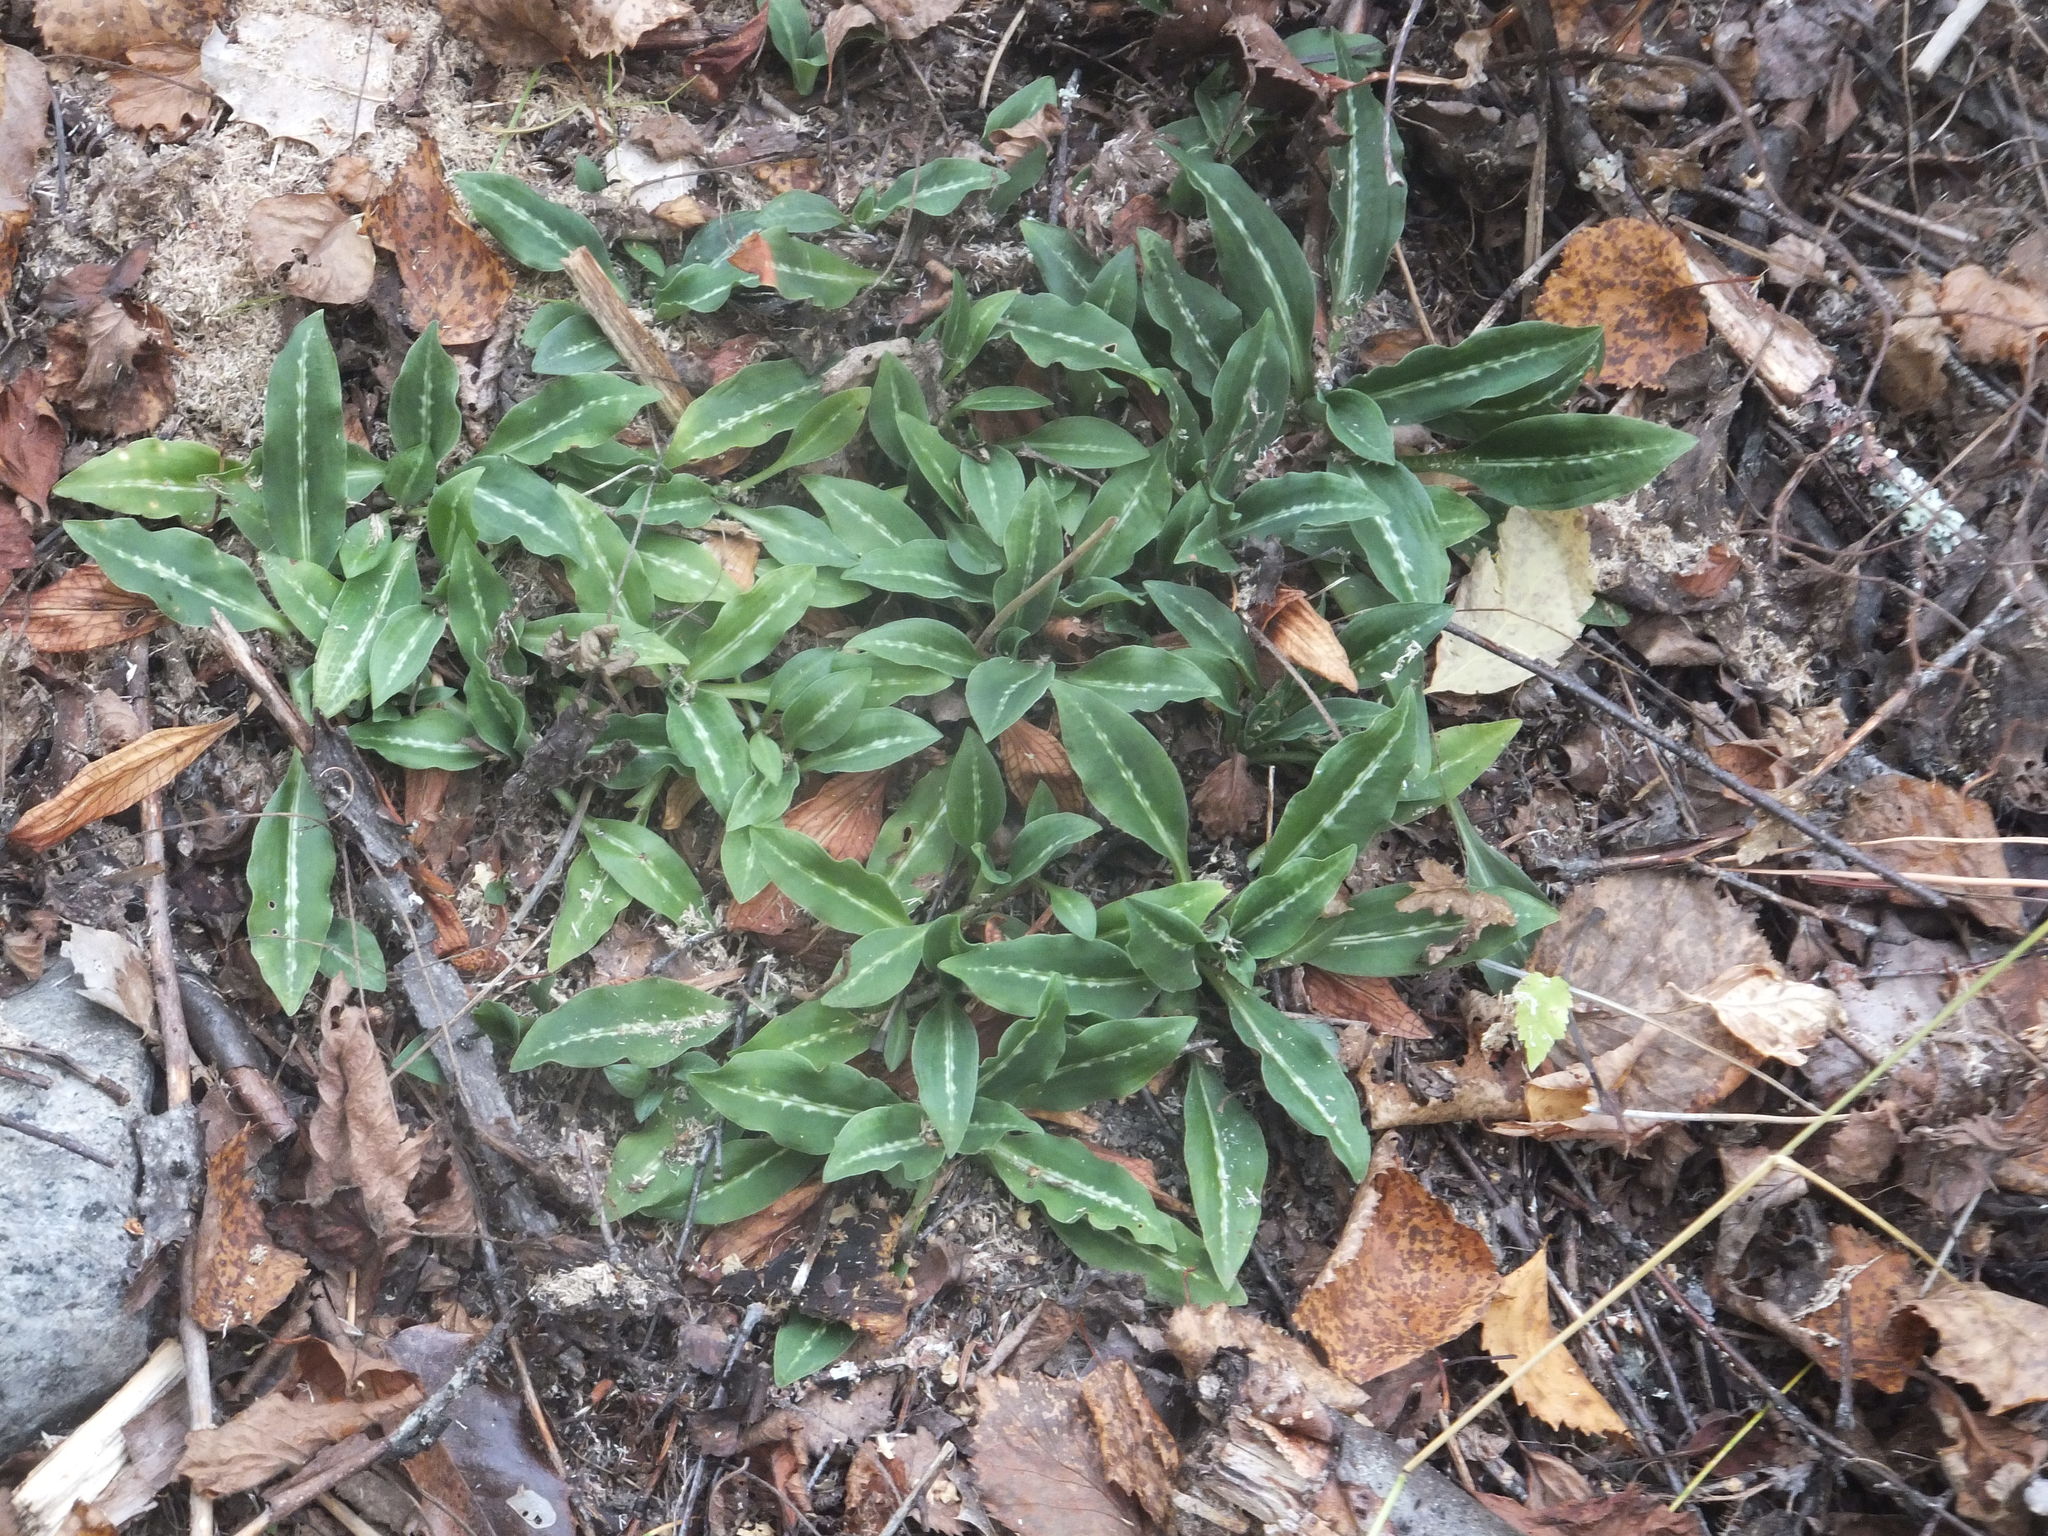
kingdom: Plantae
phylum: Tracheophyta
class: Liliopsida
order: Asparagales
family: Orchidaceae
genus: Goodyera
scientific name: Goodyera oblongifolia
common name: Giant rattlesnake-plantain
